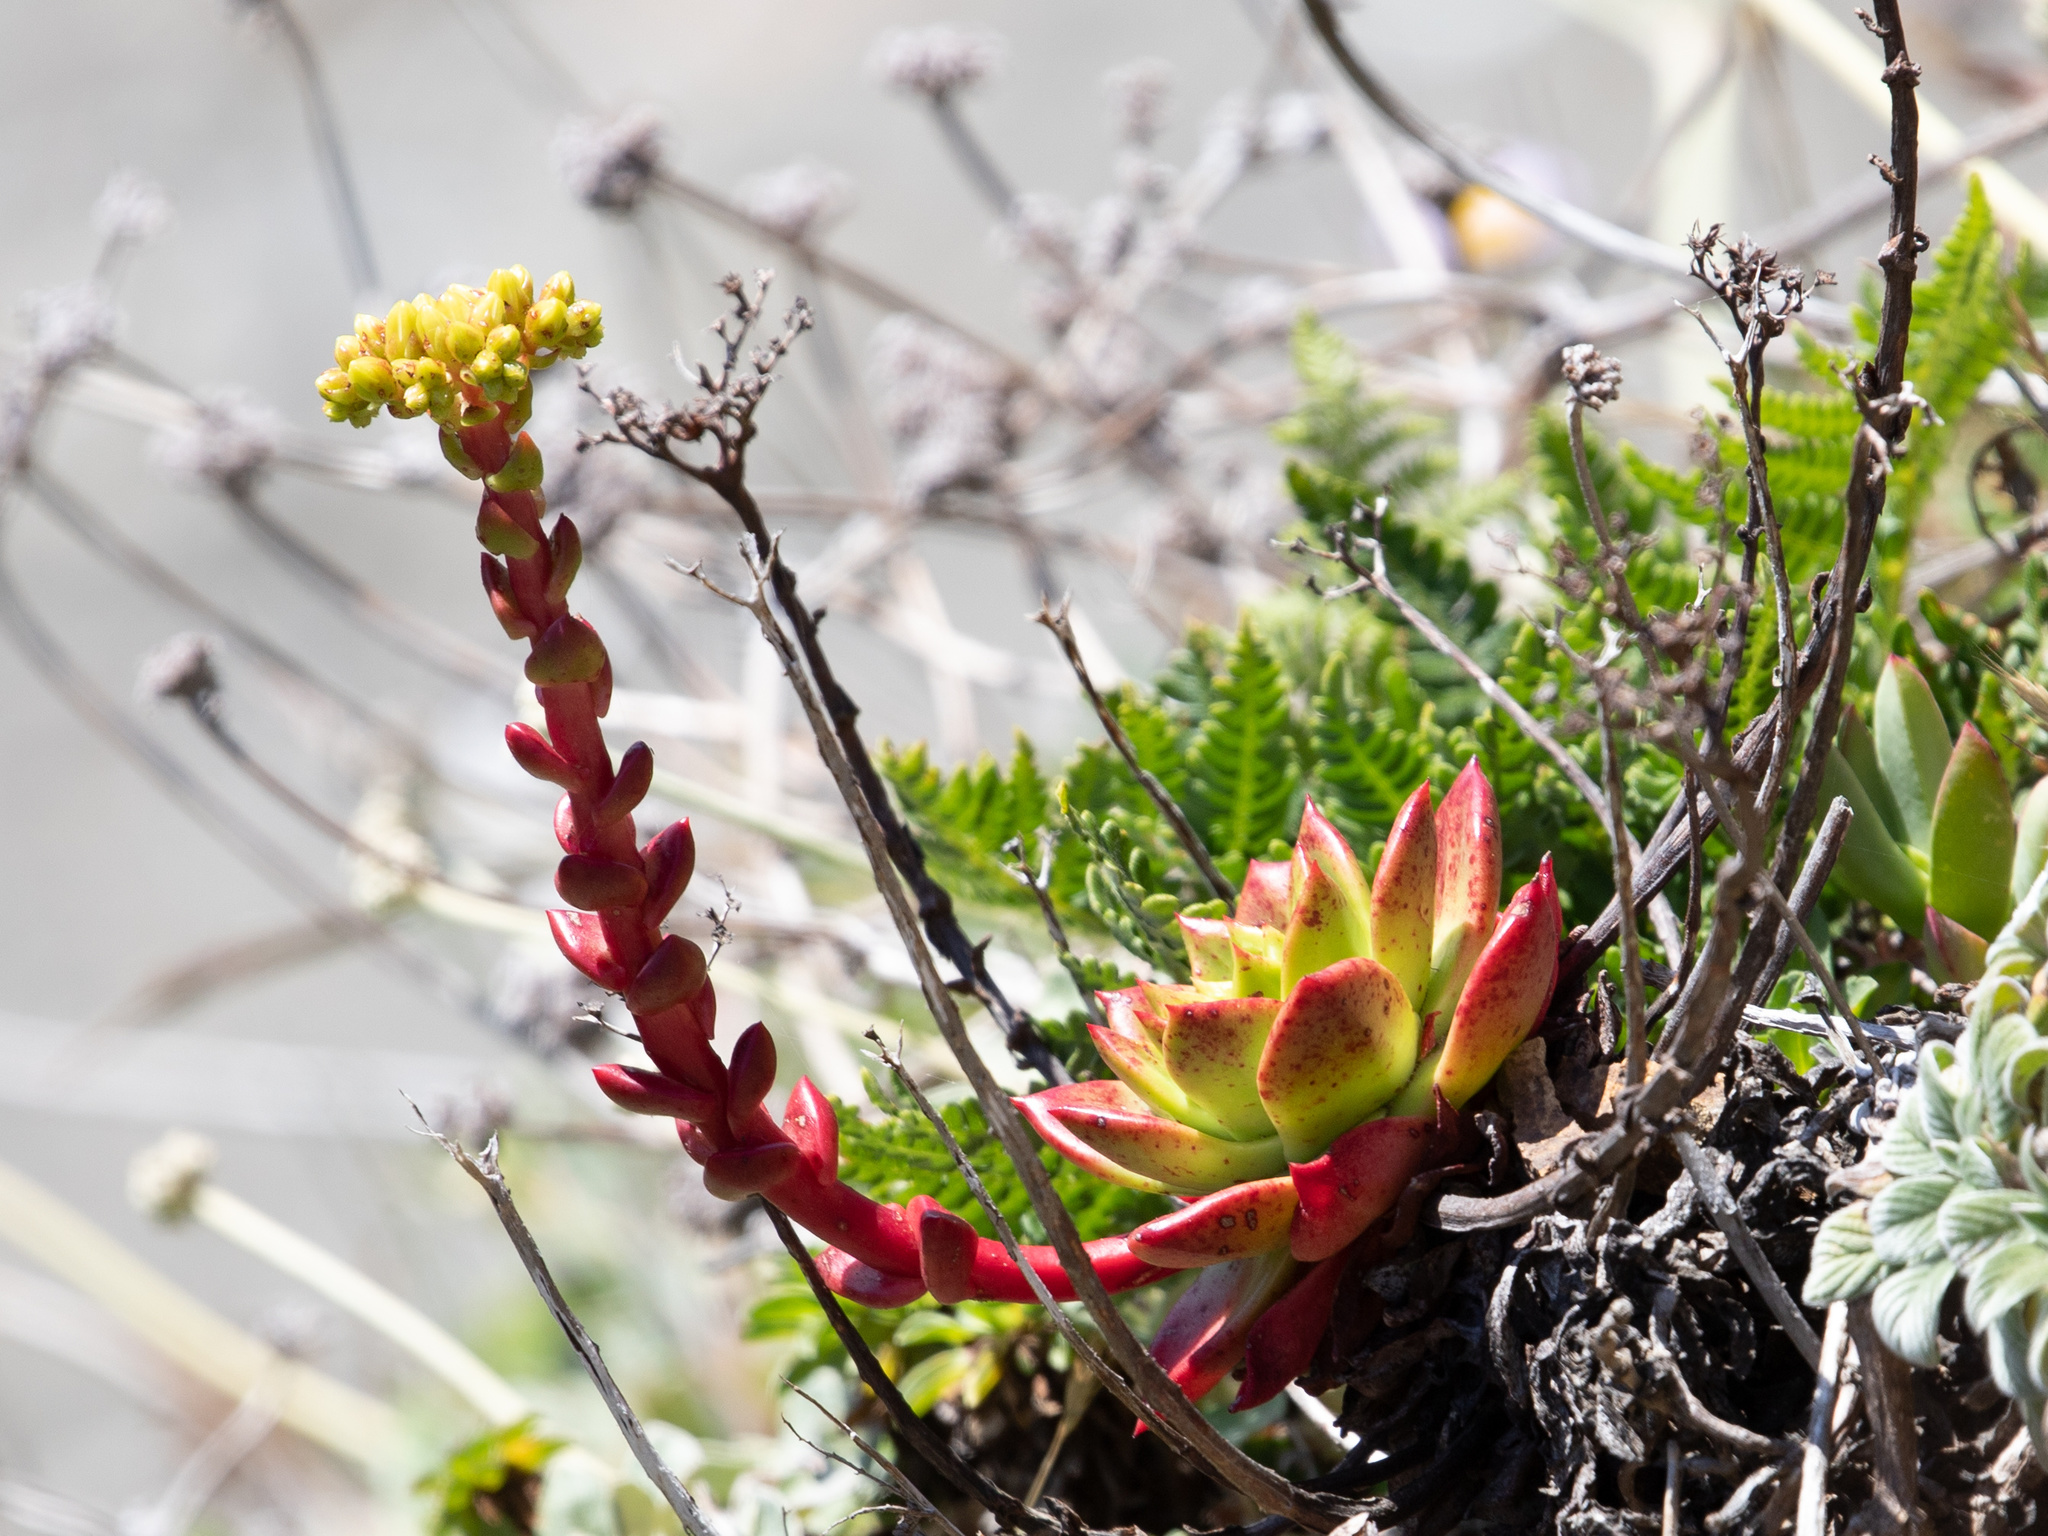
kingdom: Plantae
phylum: Tracheophyta
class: Magnoliopsida
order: Saxifragales
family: Crassulaceae
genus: Dudleya
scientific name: Dudleya farinosa
